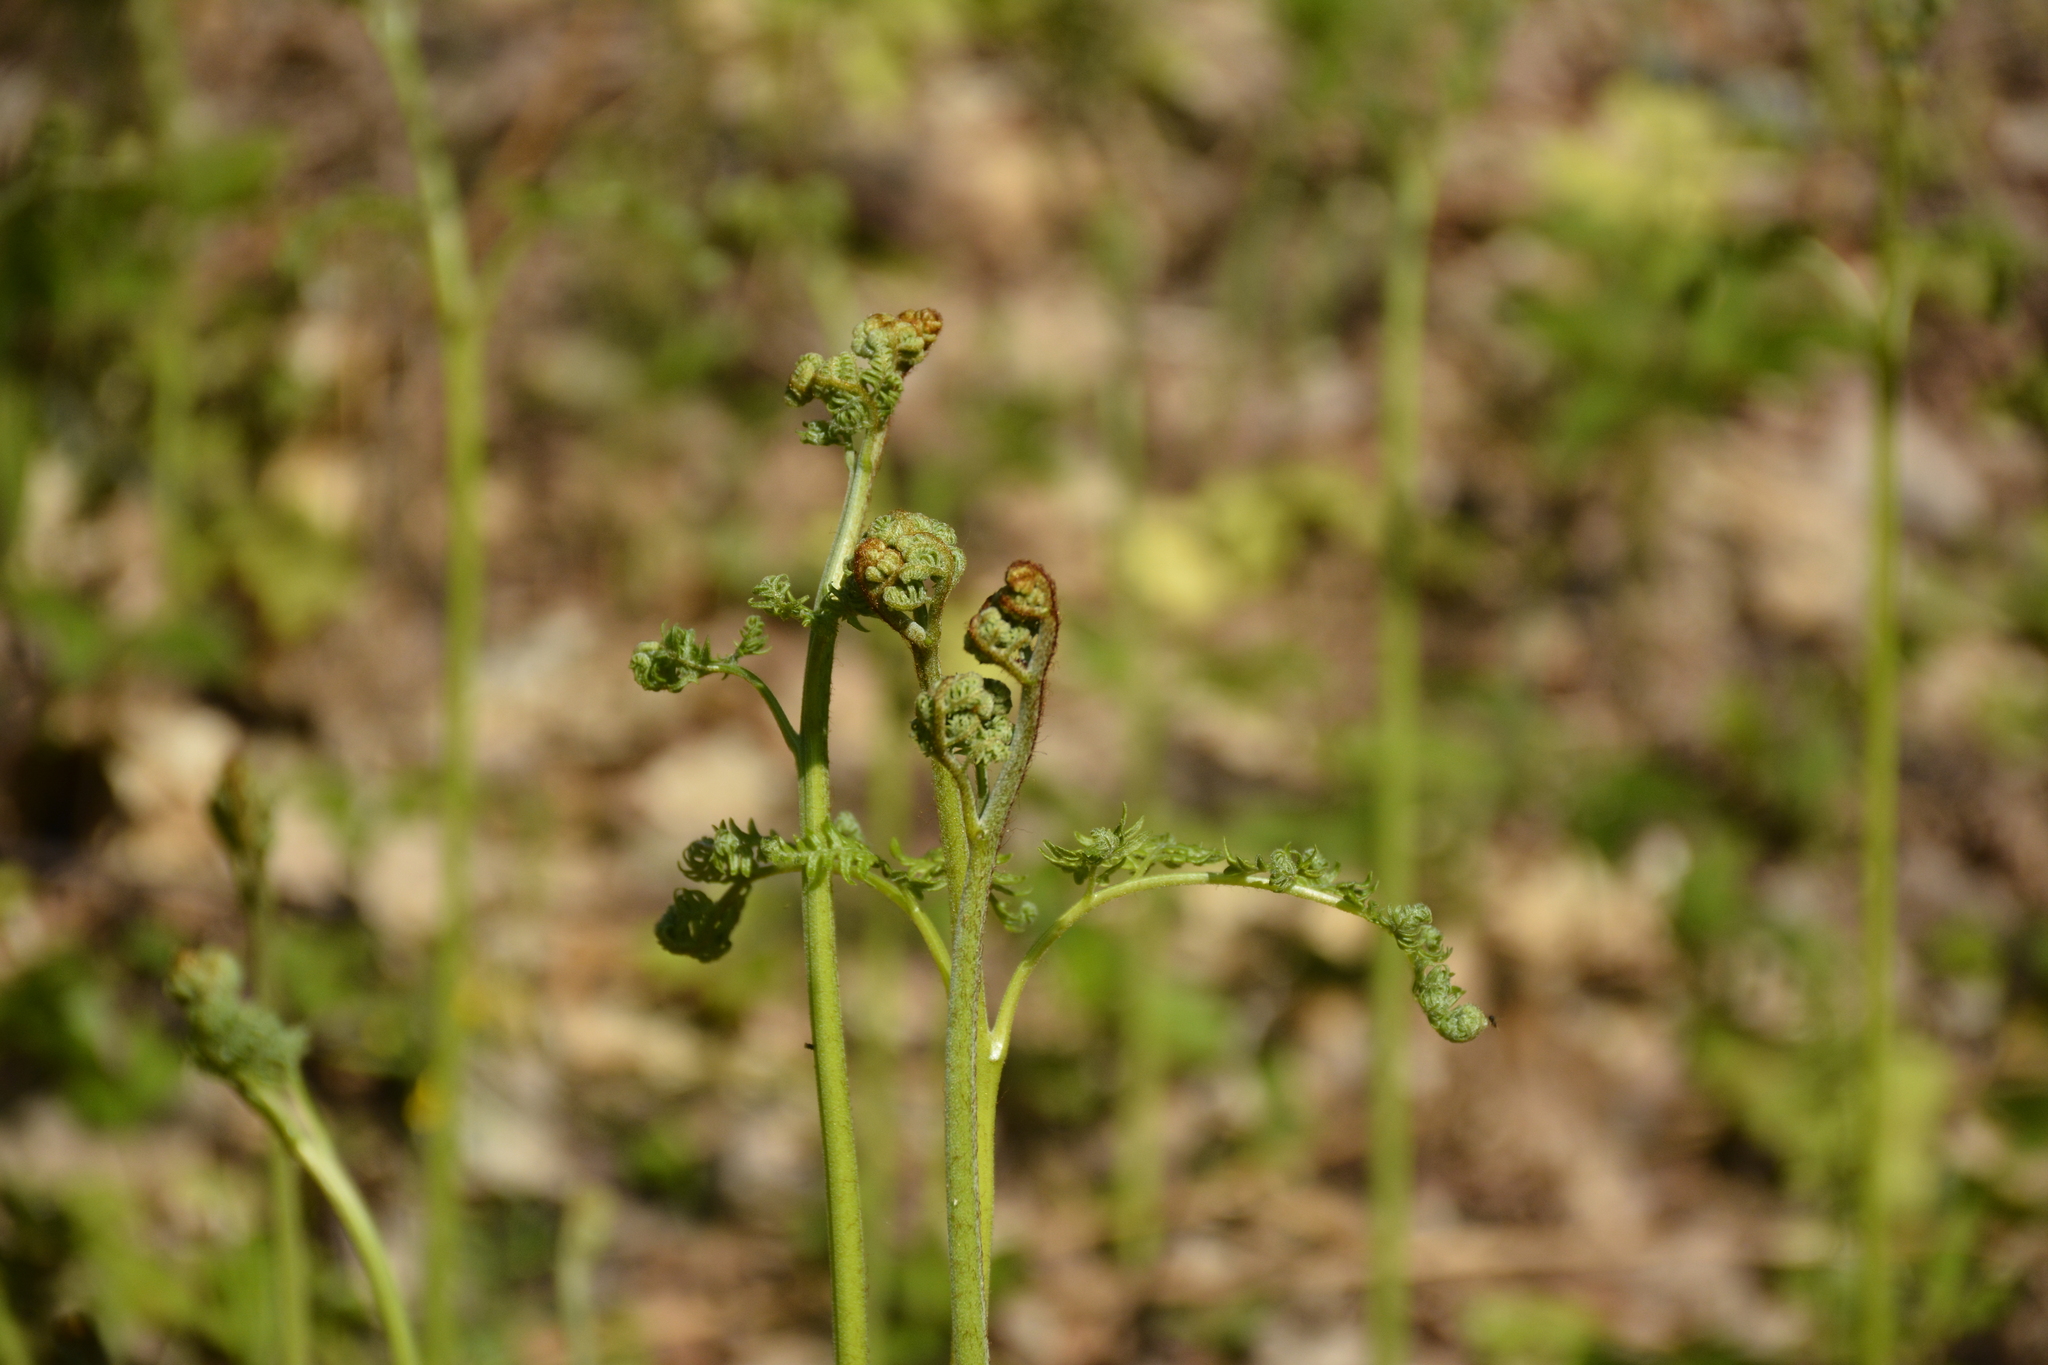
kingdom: Plantae
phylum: Tracheophyta
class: Polypodiopsida
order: Polypodiales
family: Dennstaedtiaceae
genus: Pteridium
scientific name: Pteridium aquilinum
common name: Bracken
